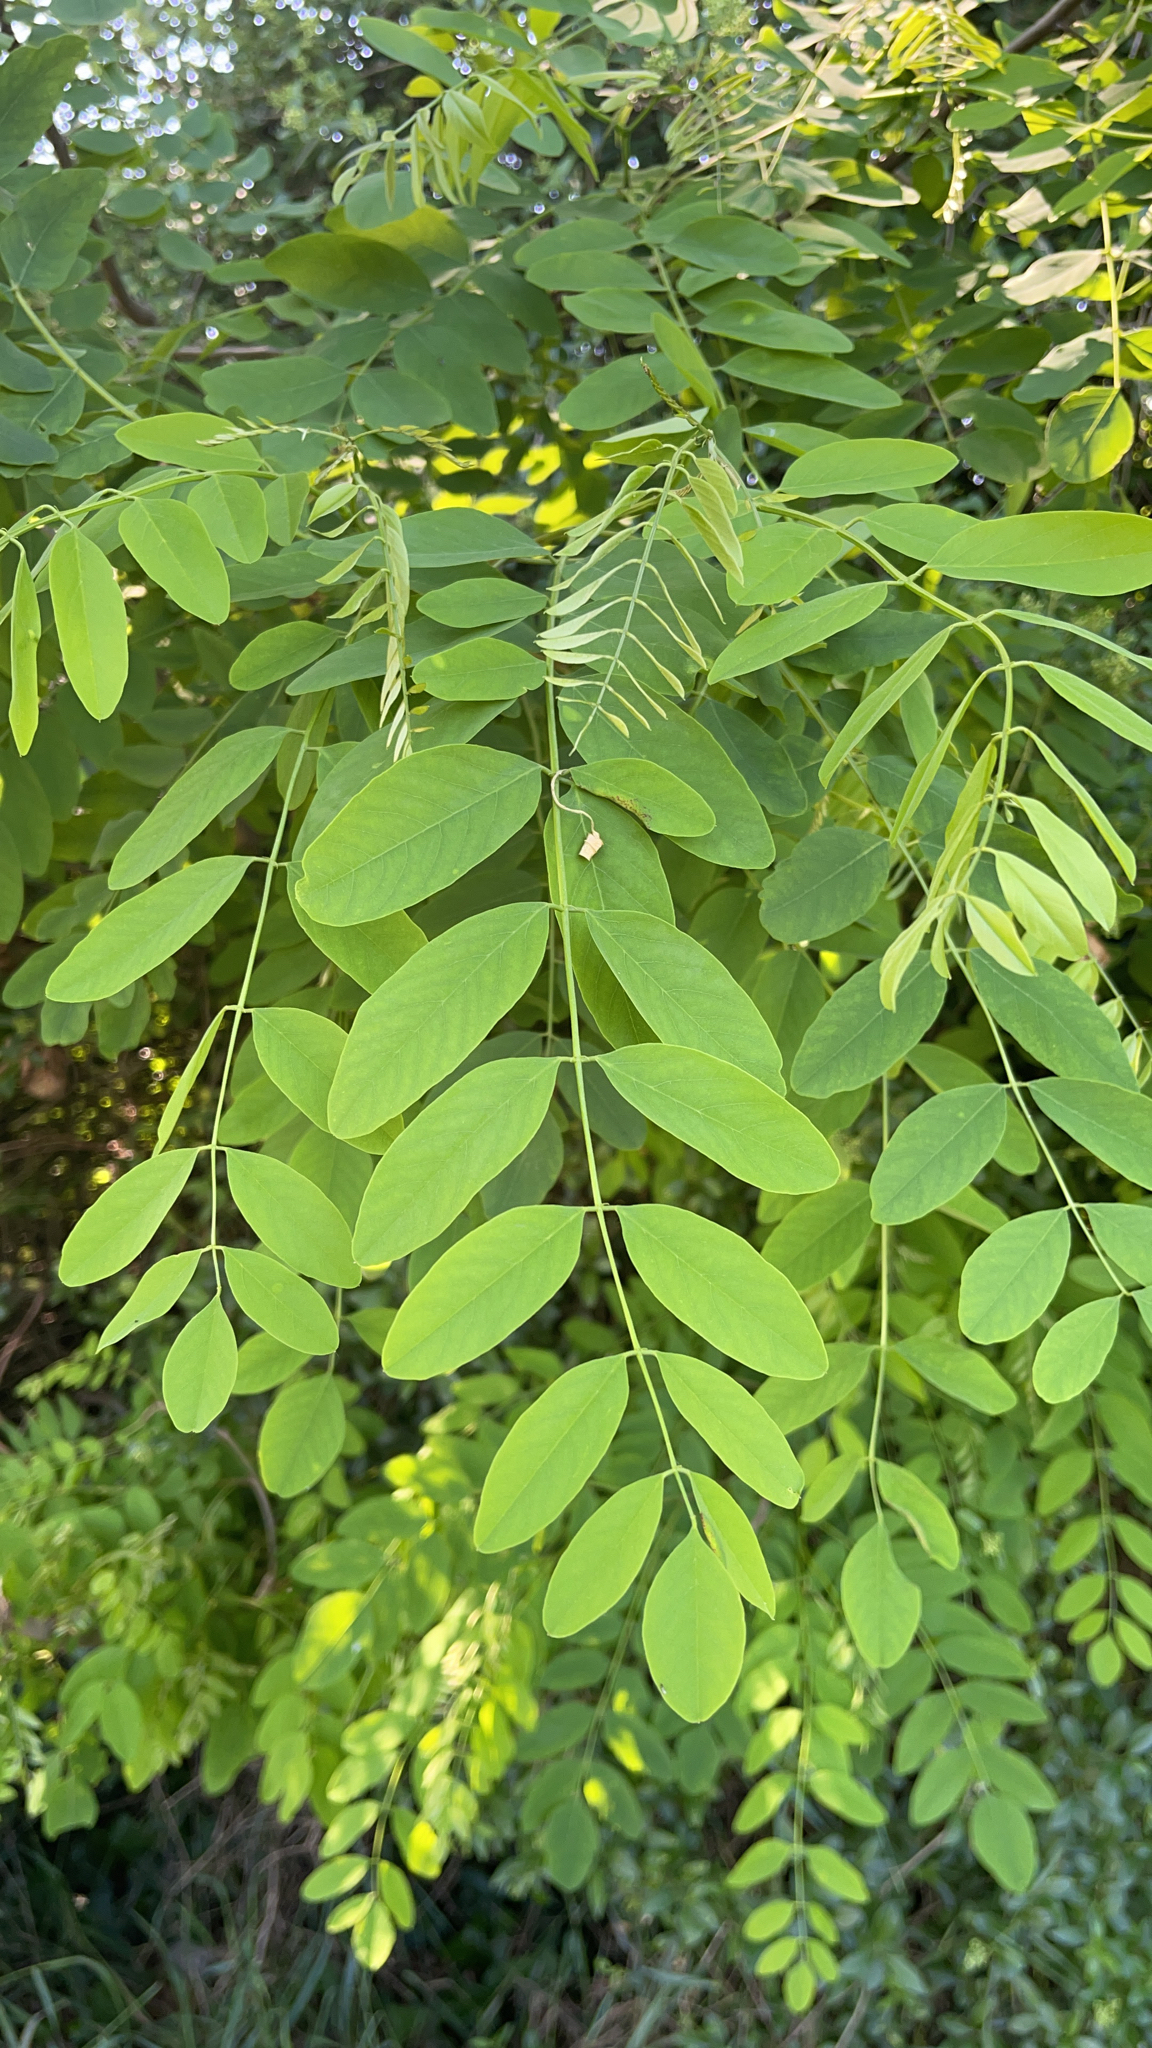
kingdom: Plantae
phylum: Tracheophyta
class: Magnoliopsida
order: Fabales
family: Fabaceae
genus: Robinia
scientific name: Robinia pseudoacacia
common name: Black locust
